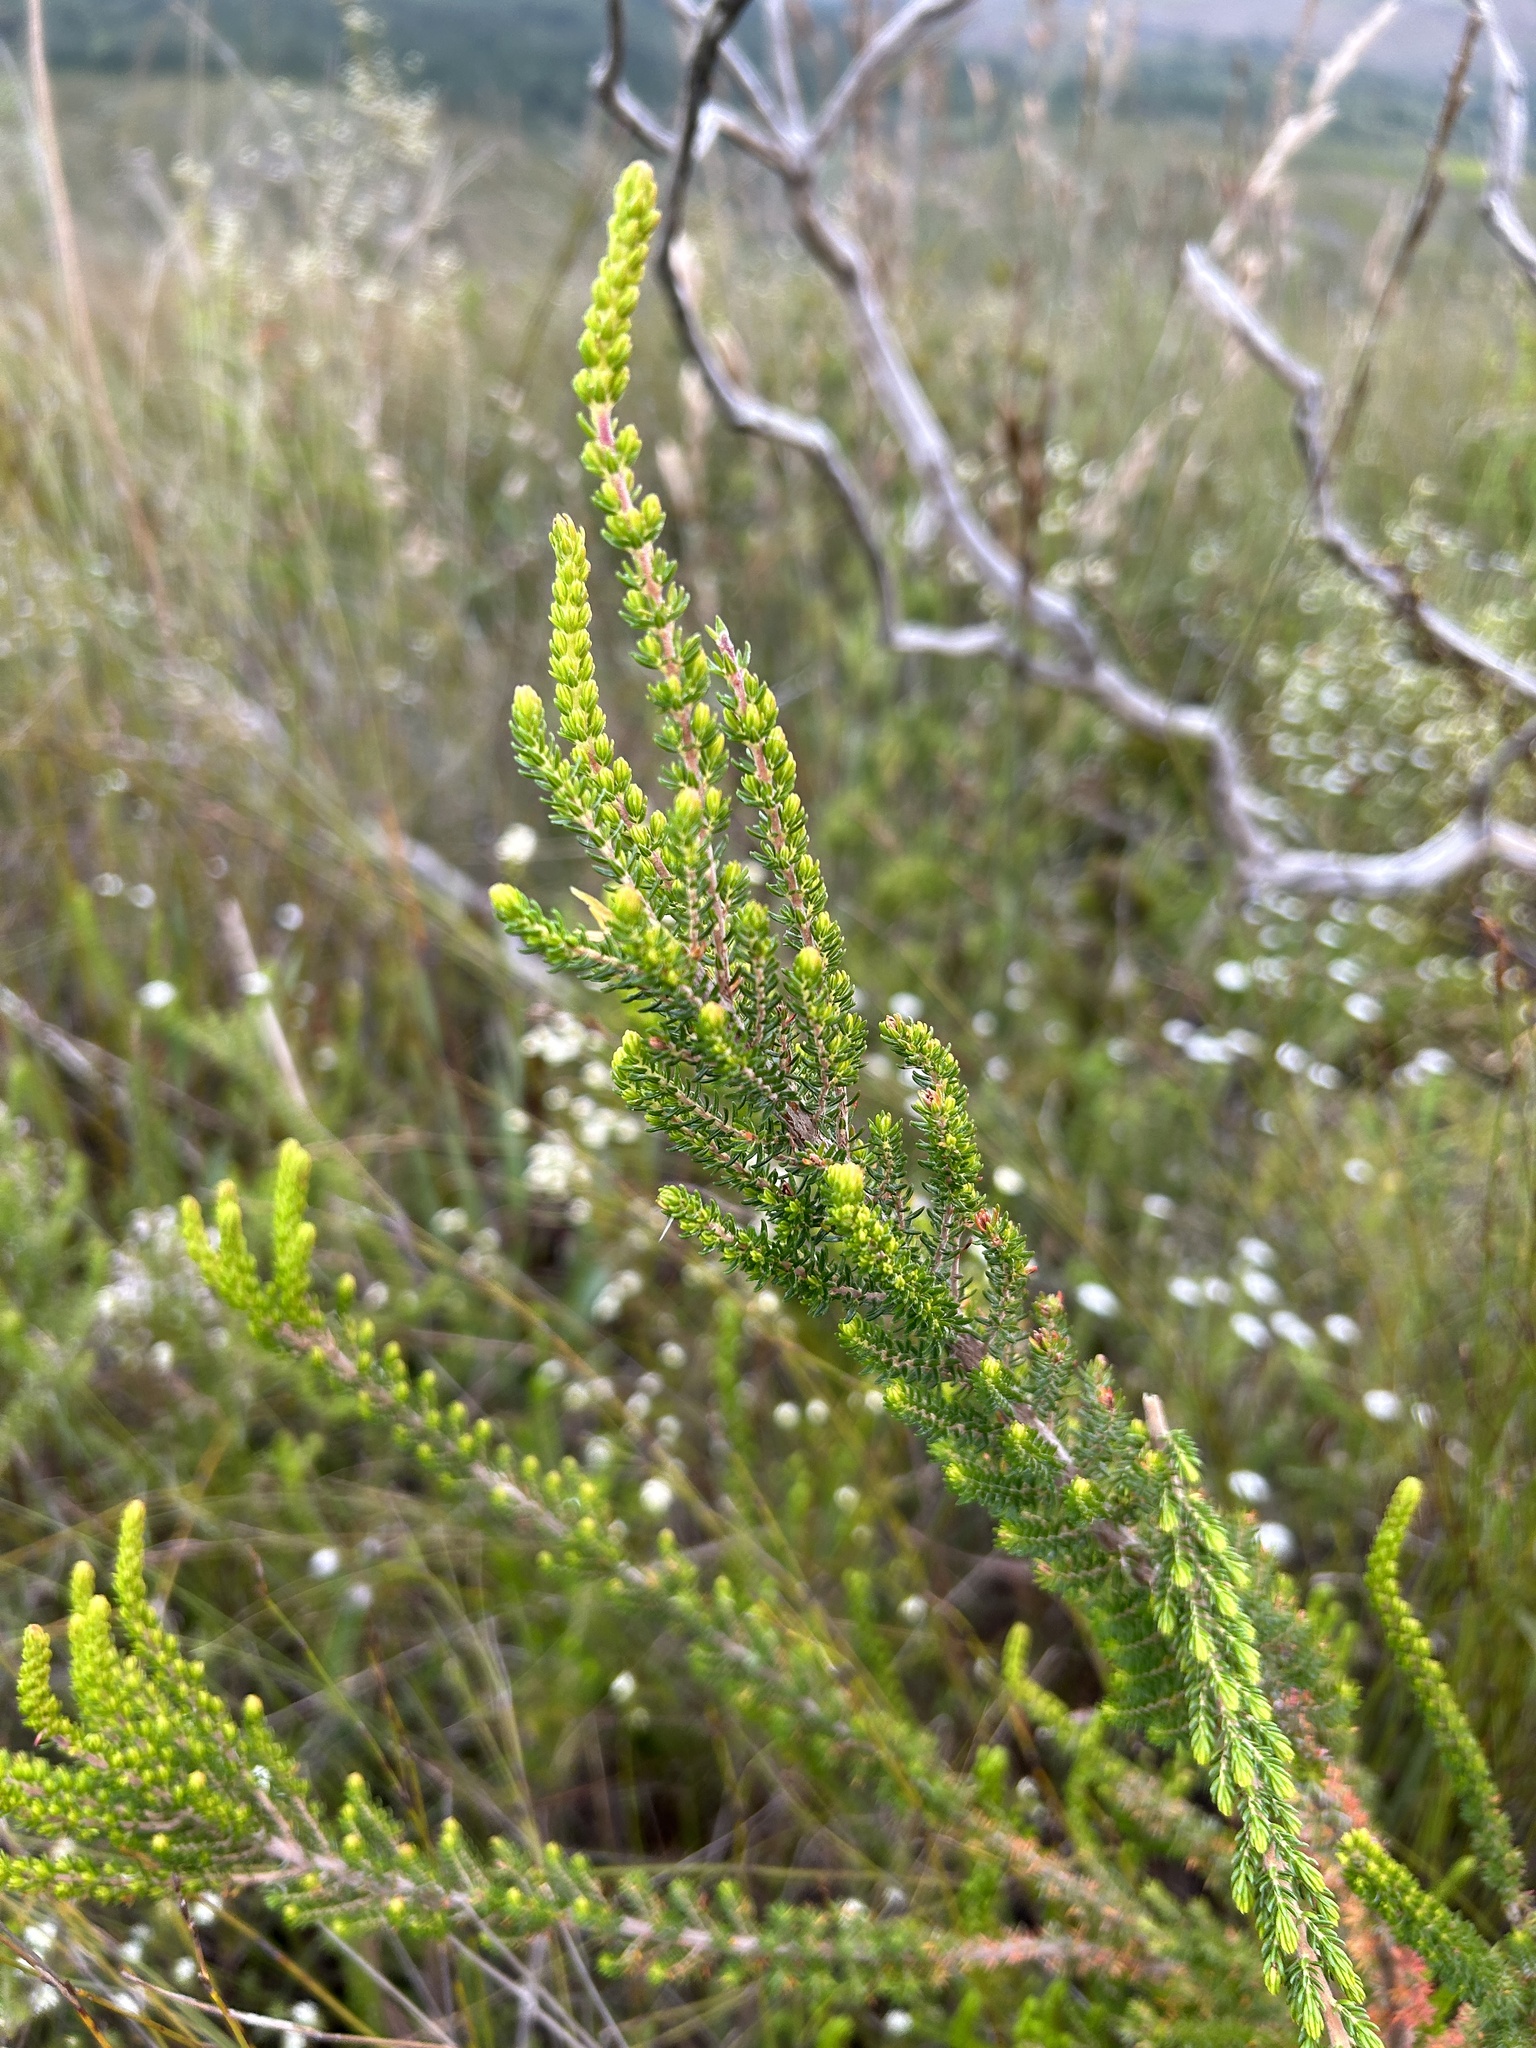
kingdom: Plantae
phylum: Tracheophyta
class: Magnoliopsida
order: Ericales
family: Ericaceae
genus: Erica
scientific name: Erica densifolia
